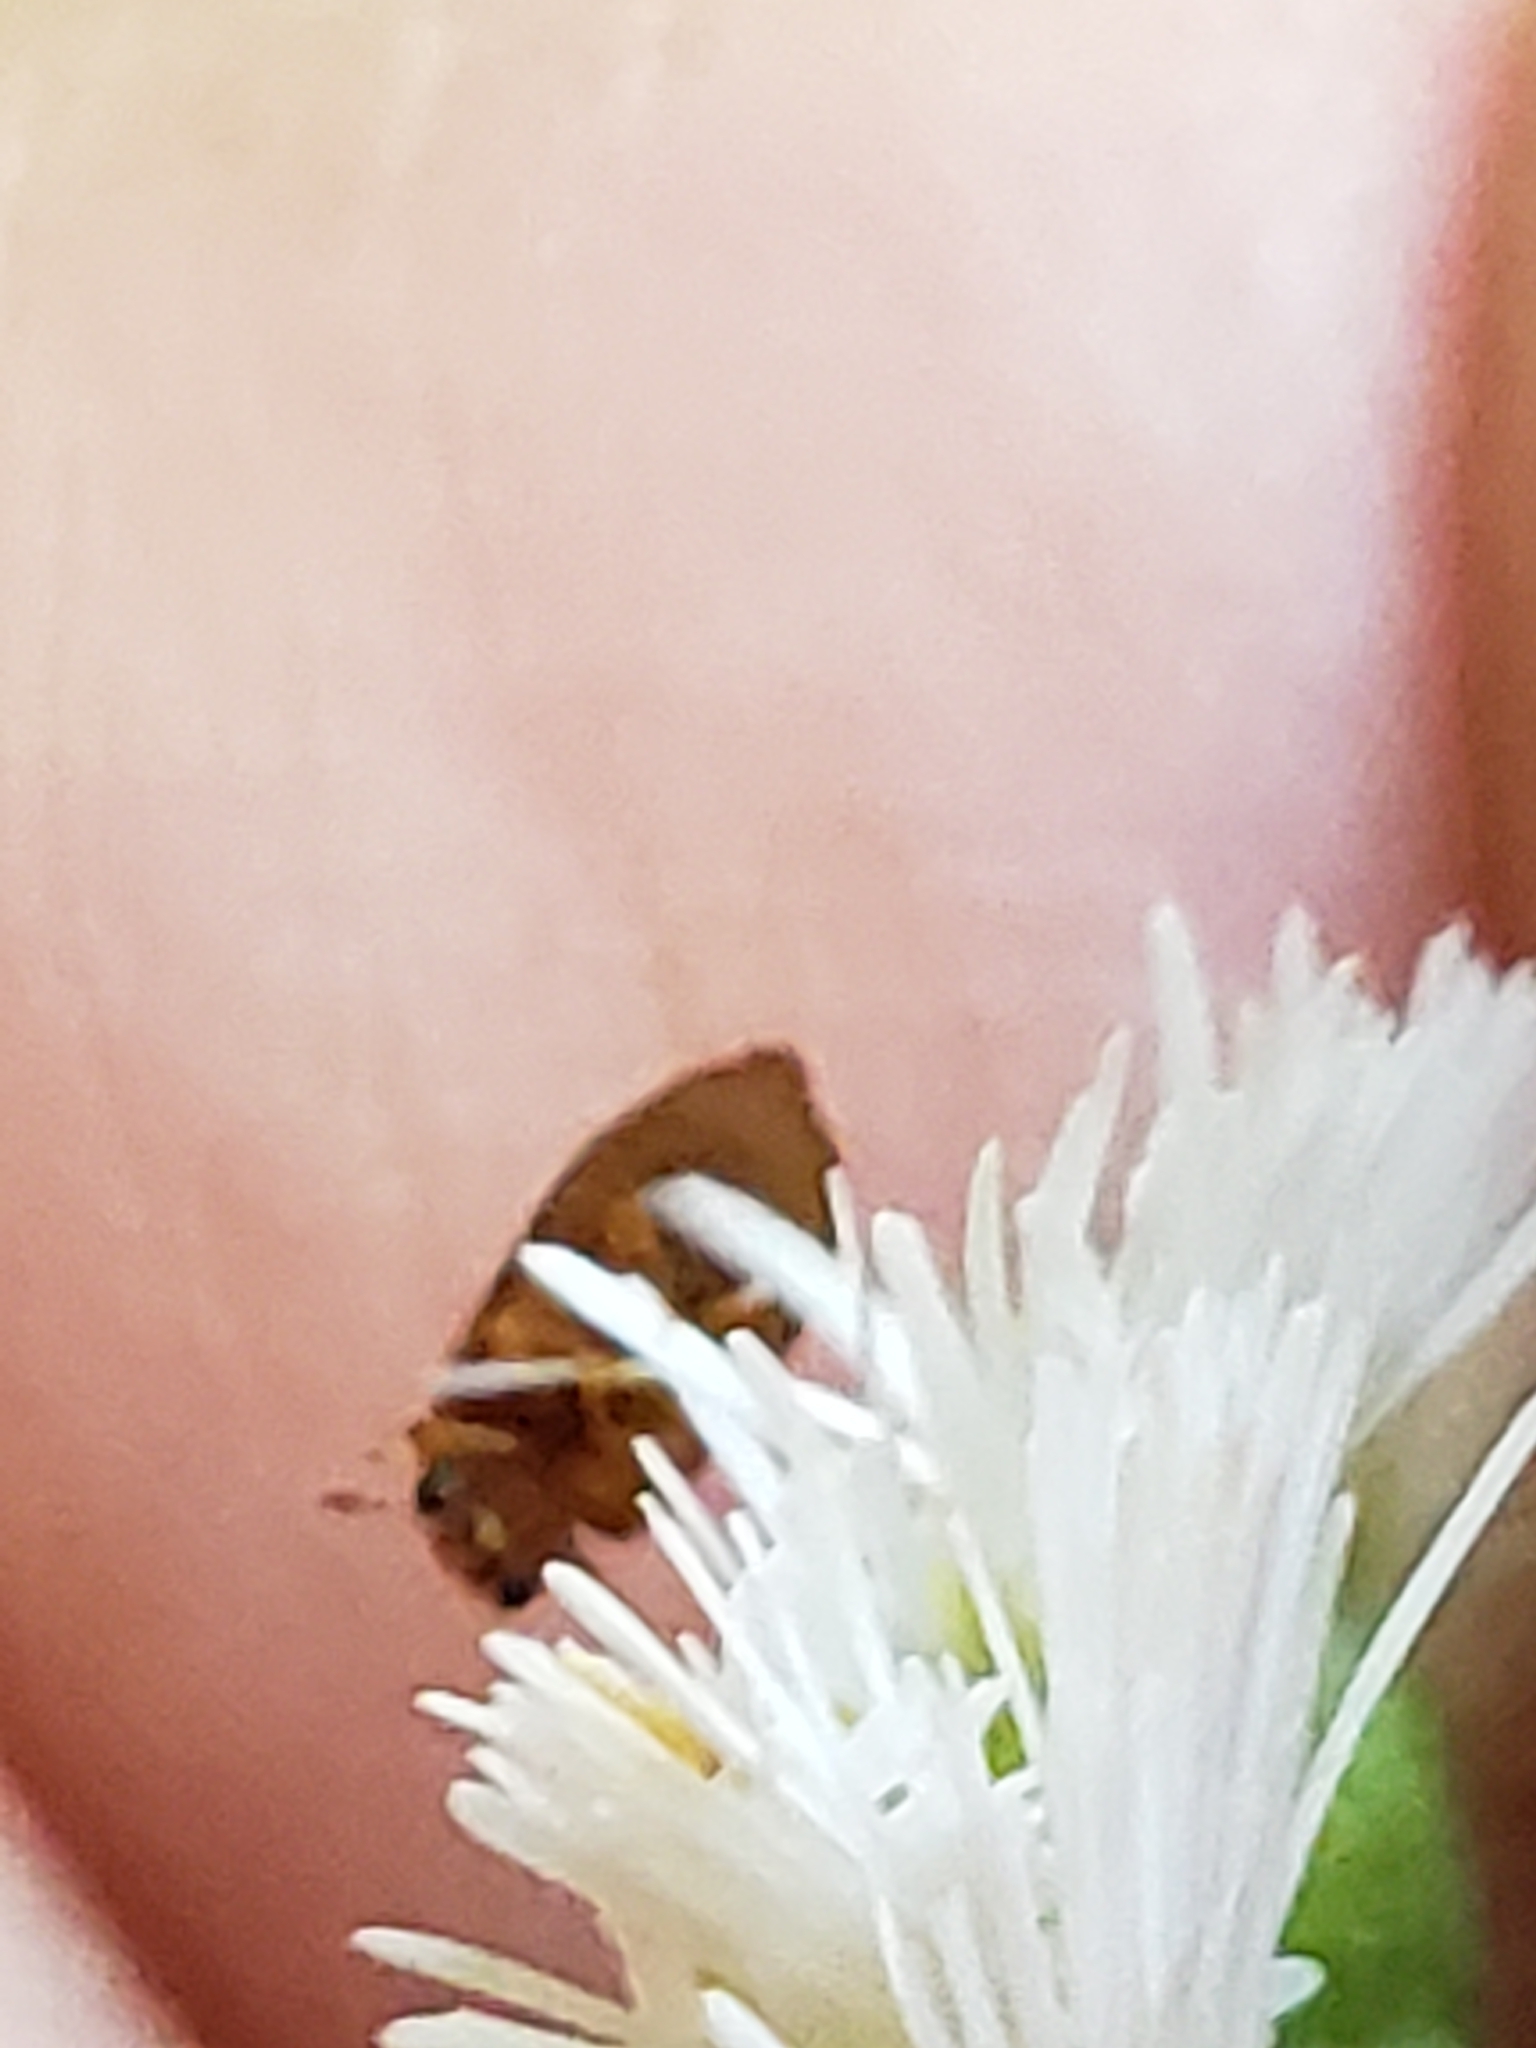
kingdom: Animalia
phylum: Arthropoda
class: Insecta
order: Coleoptera
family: Byturidae
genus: Byturus
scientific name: Byturus unicolor
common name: Raspberry fruitworm beetle
